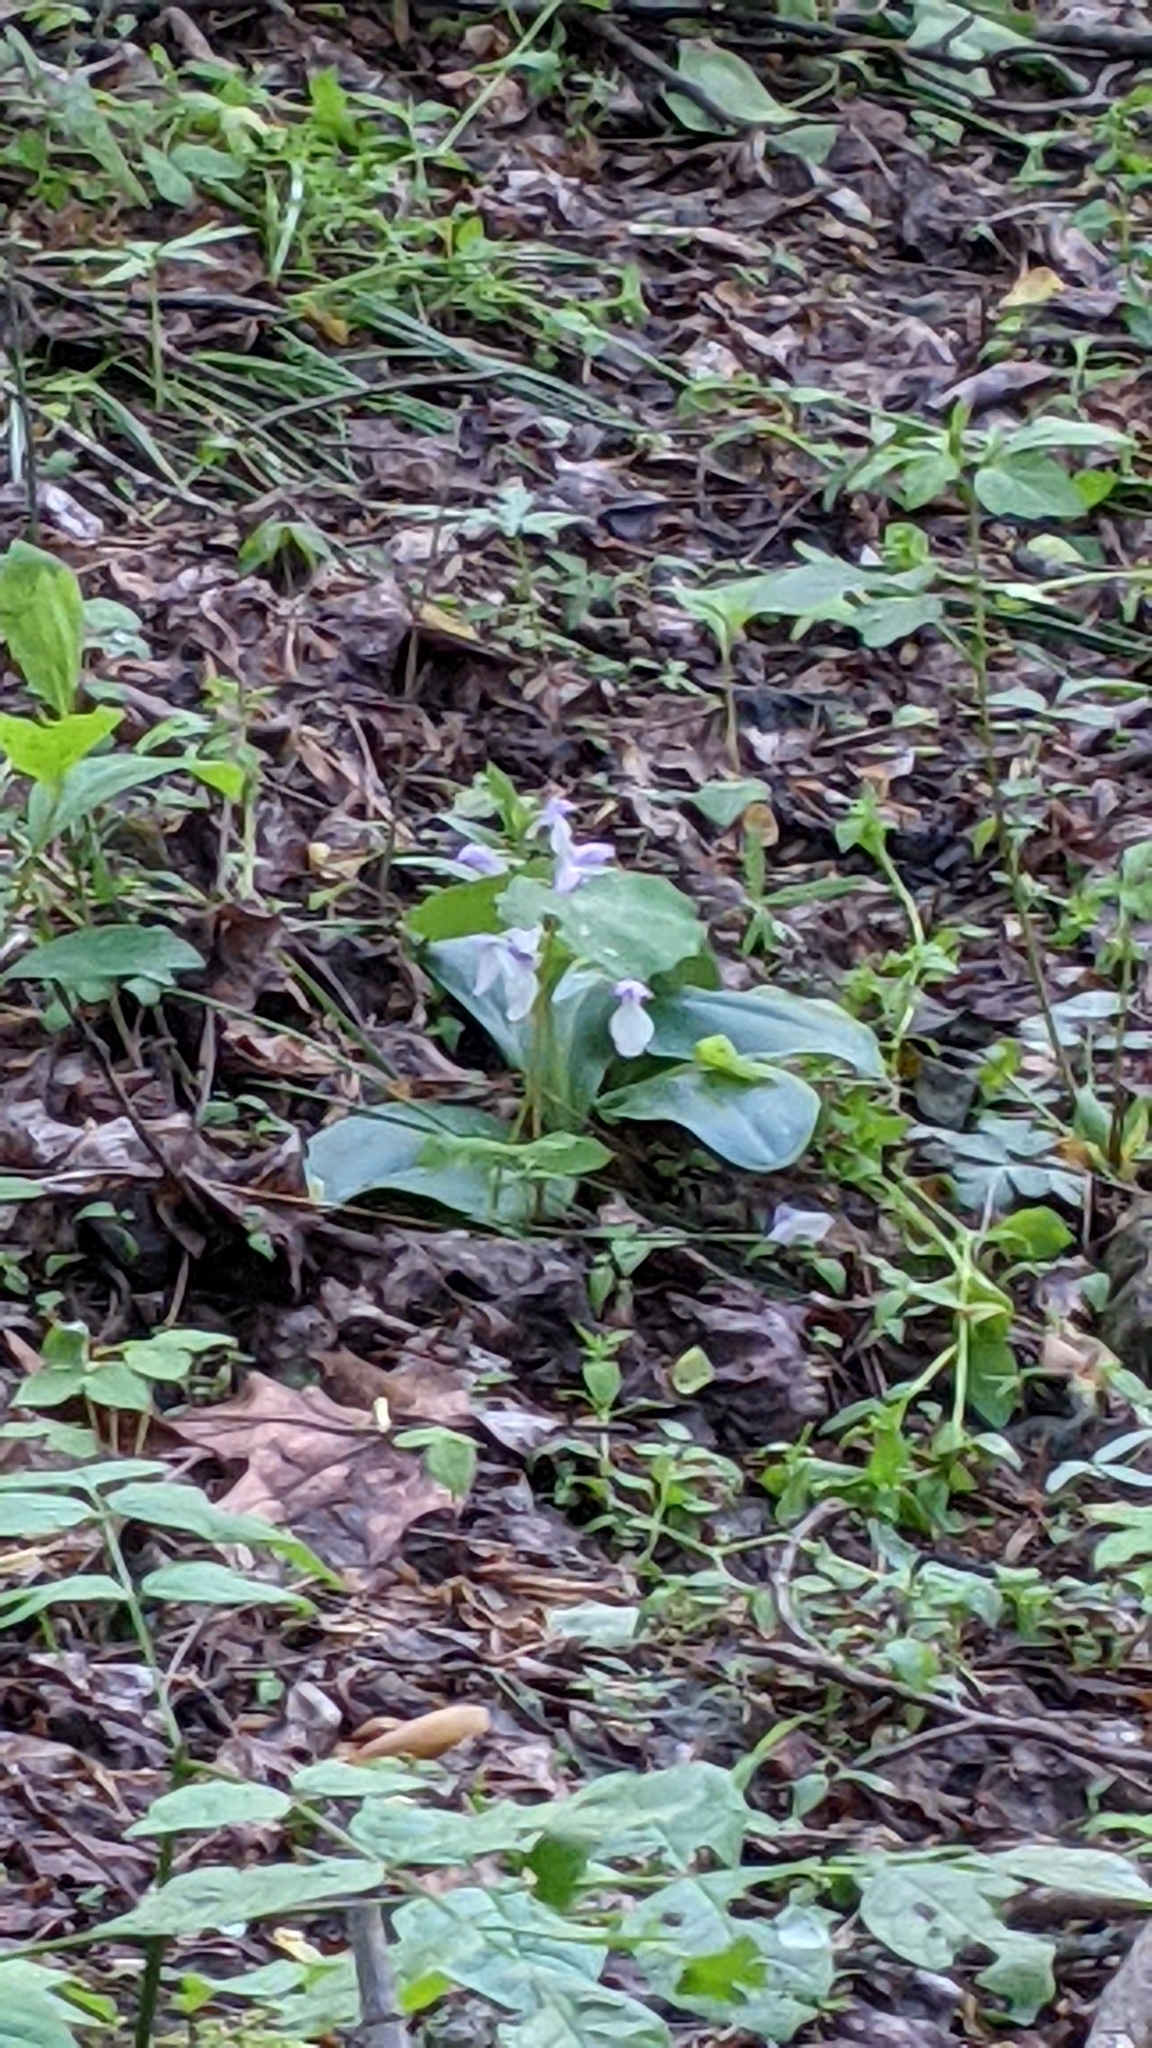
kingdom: Plantae
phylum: Tracheophyta
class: Liliopsida
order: Asparagales
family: Orchidaceae
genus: Galearis
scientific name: Galearis spectabilis
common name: Purple-hooded orchis
